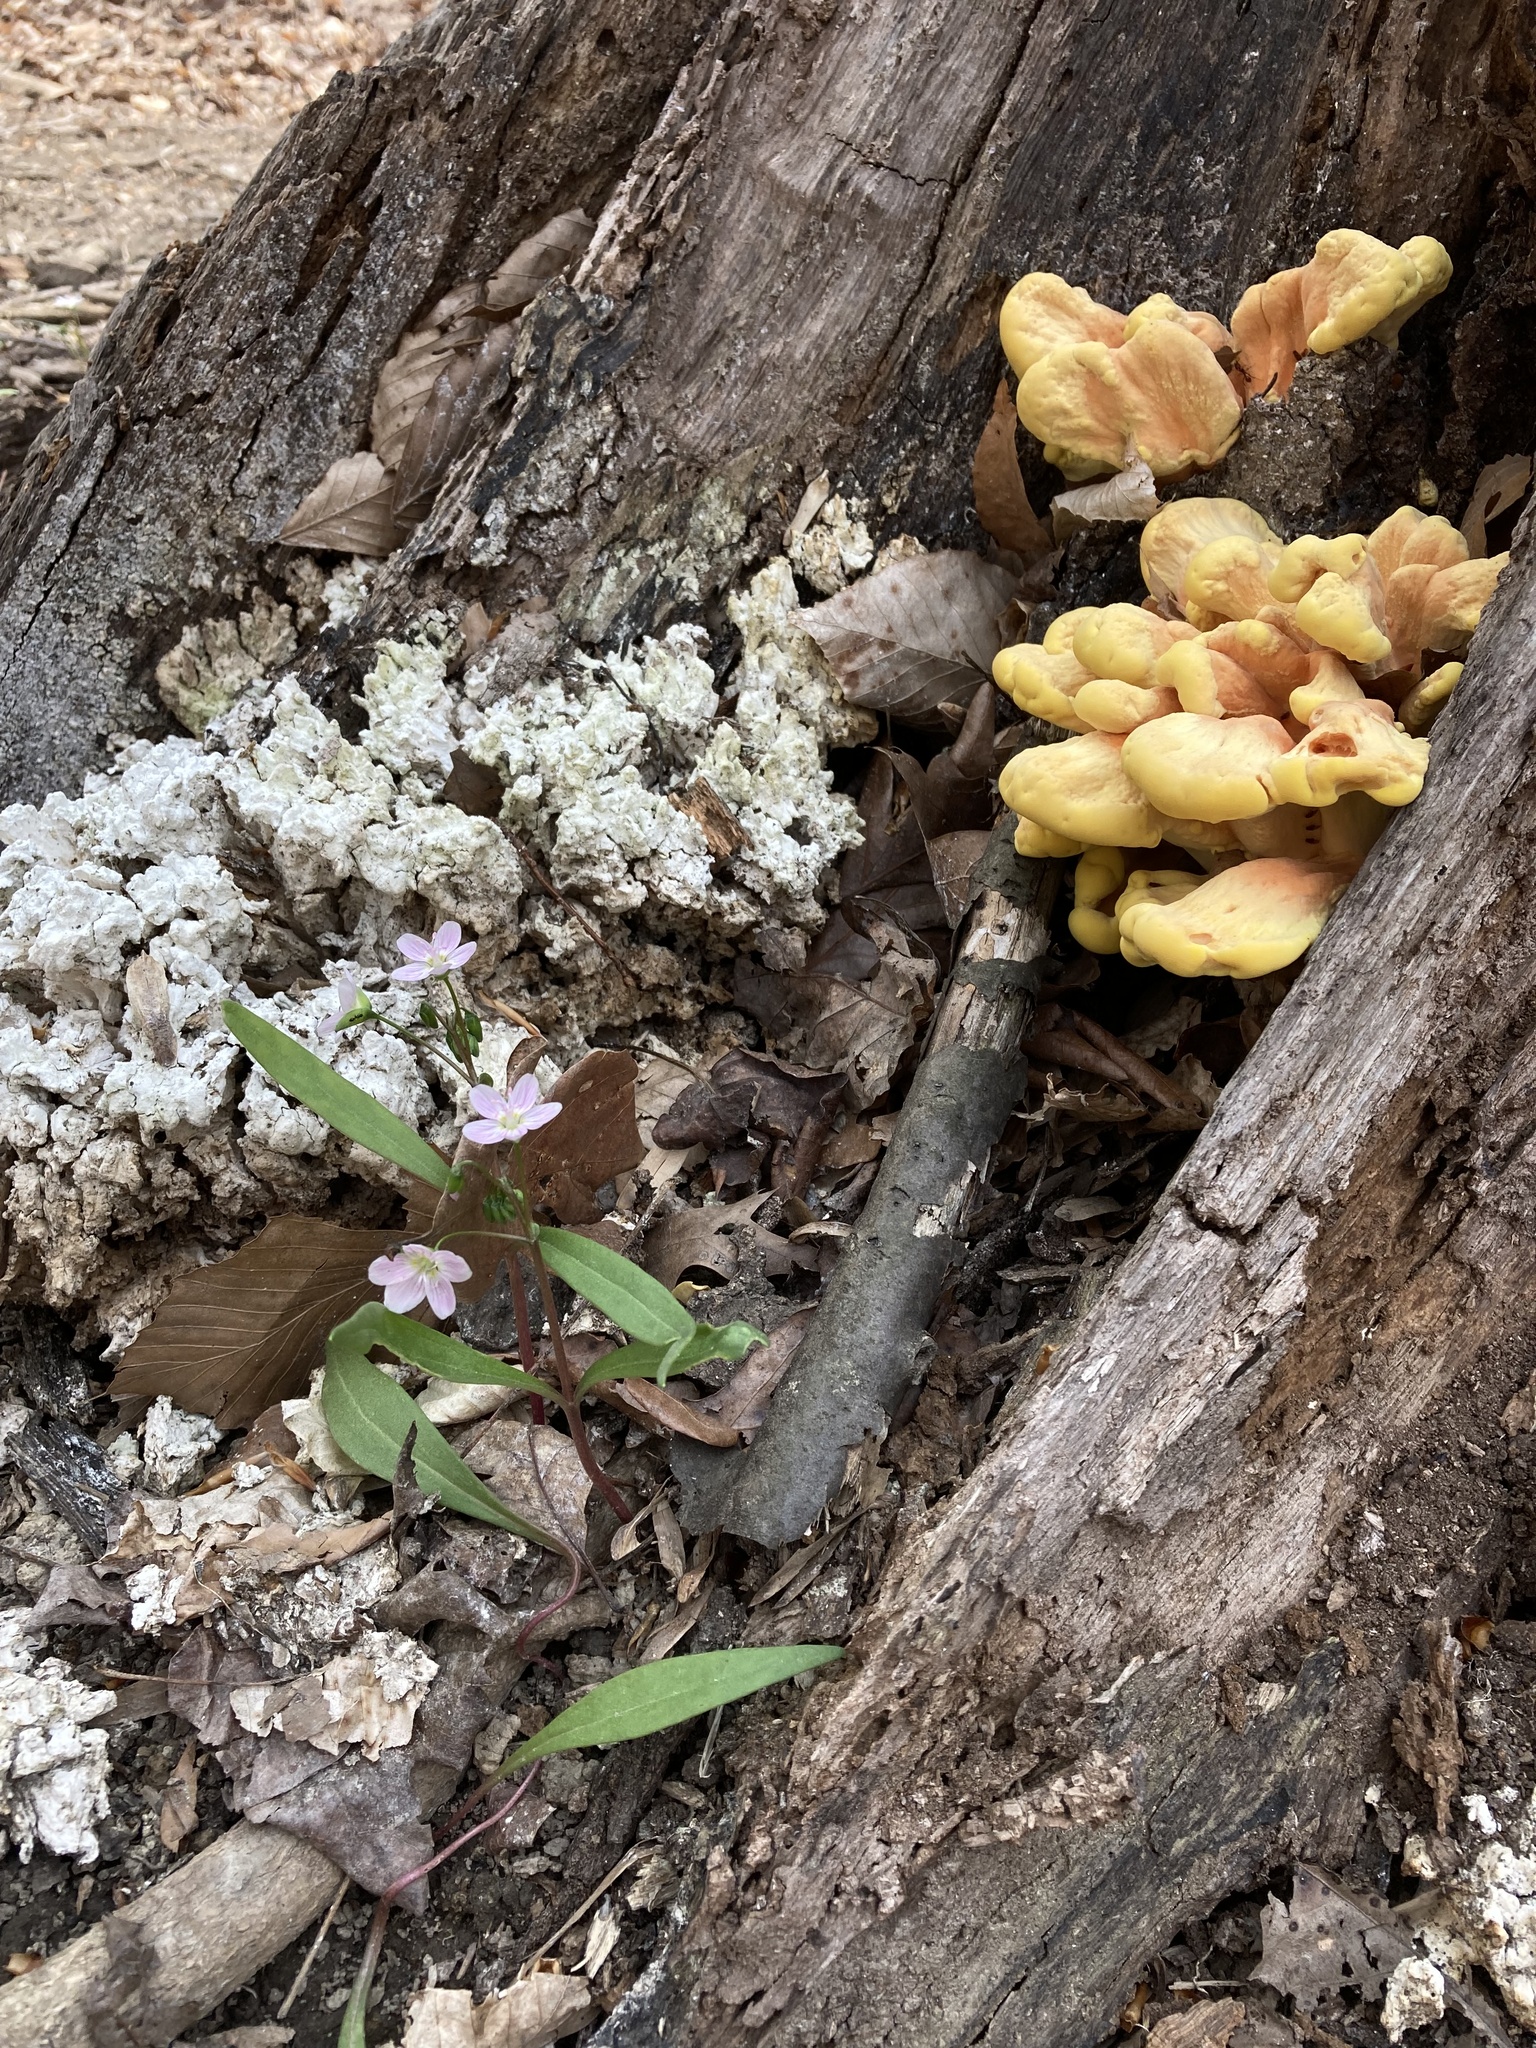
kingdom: Fungi
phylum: Basidiomycota
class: Agaricomycetes
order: Polyporales
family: Laetiporaceae
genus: Laetiporus
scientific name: Laetiporus sulphureus
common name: Chicken of the woods
